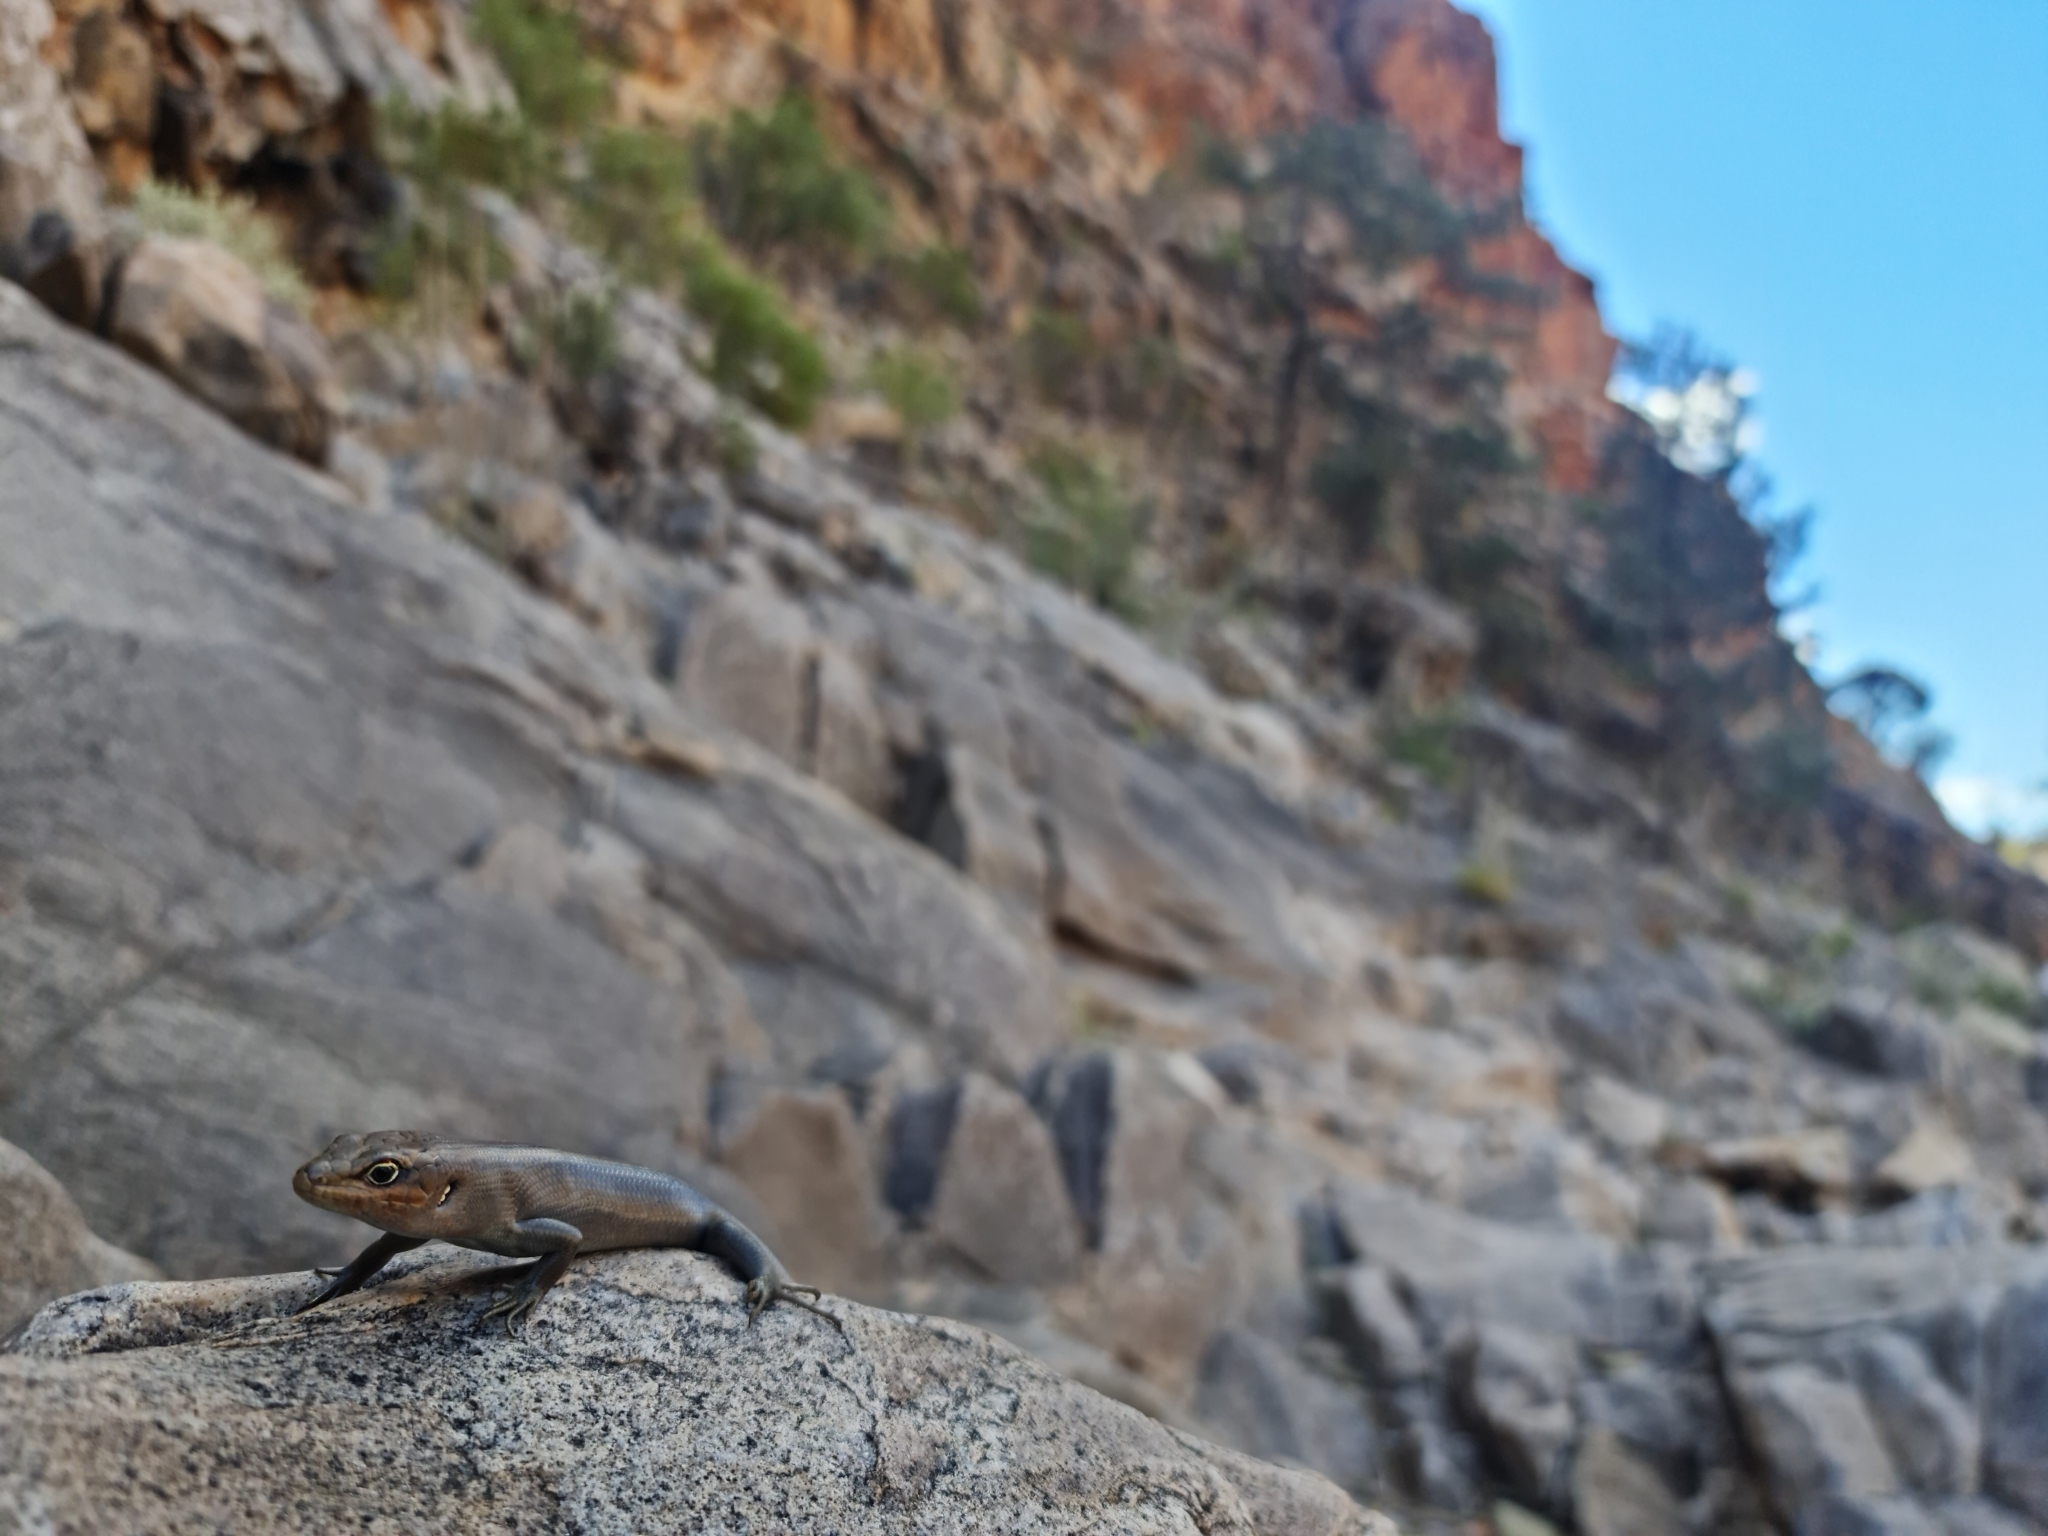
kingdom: Animalia
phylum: Chordata
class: Squamata
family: Scincidae
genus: Liopholis
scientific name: Liopholis personata
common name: Centralian ranges rock-skink
